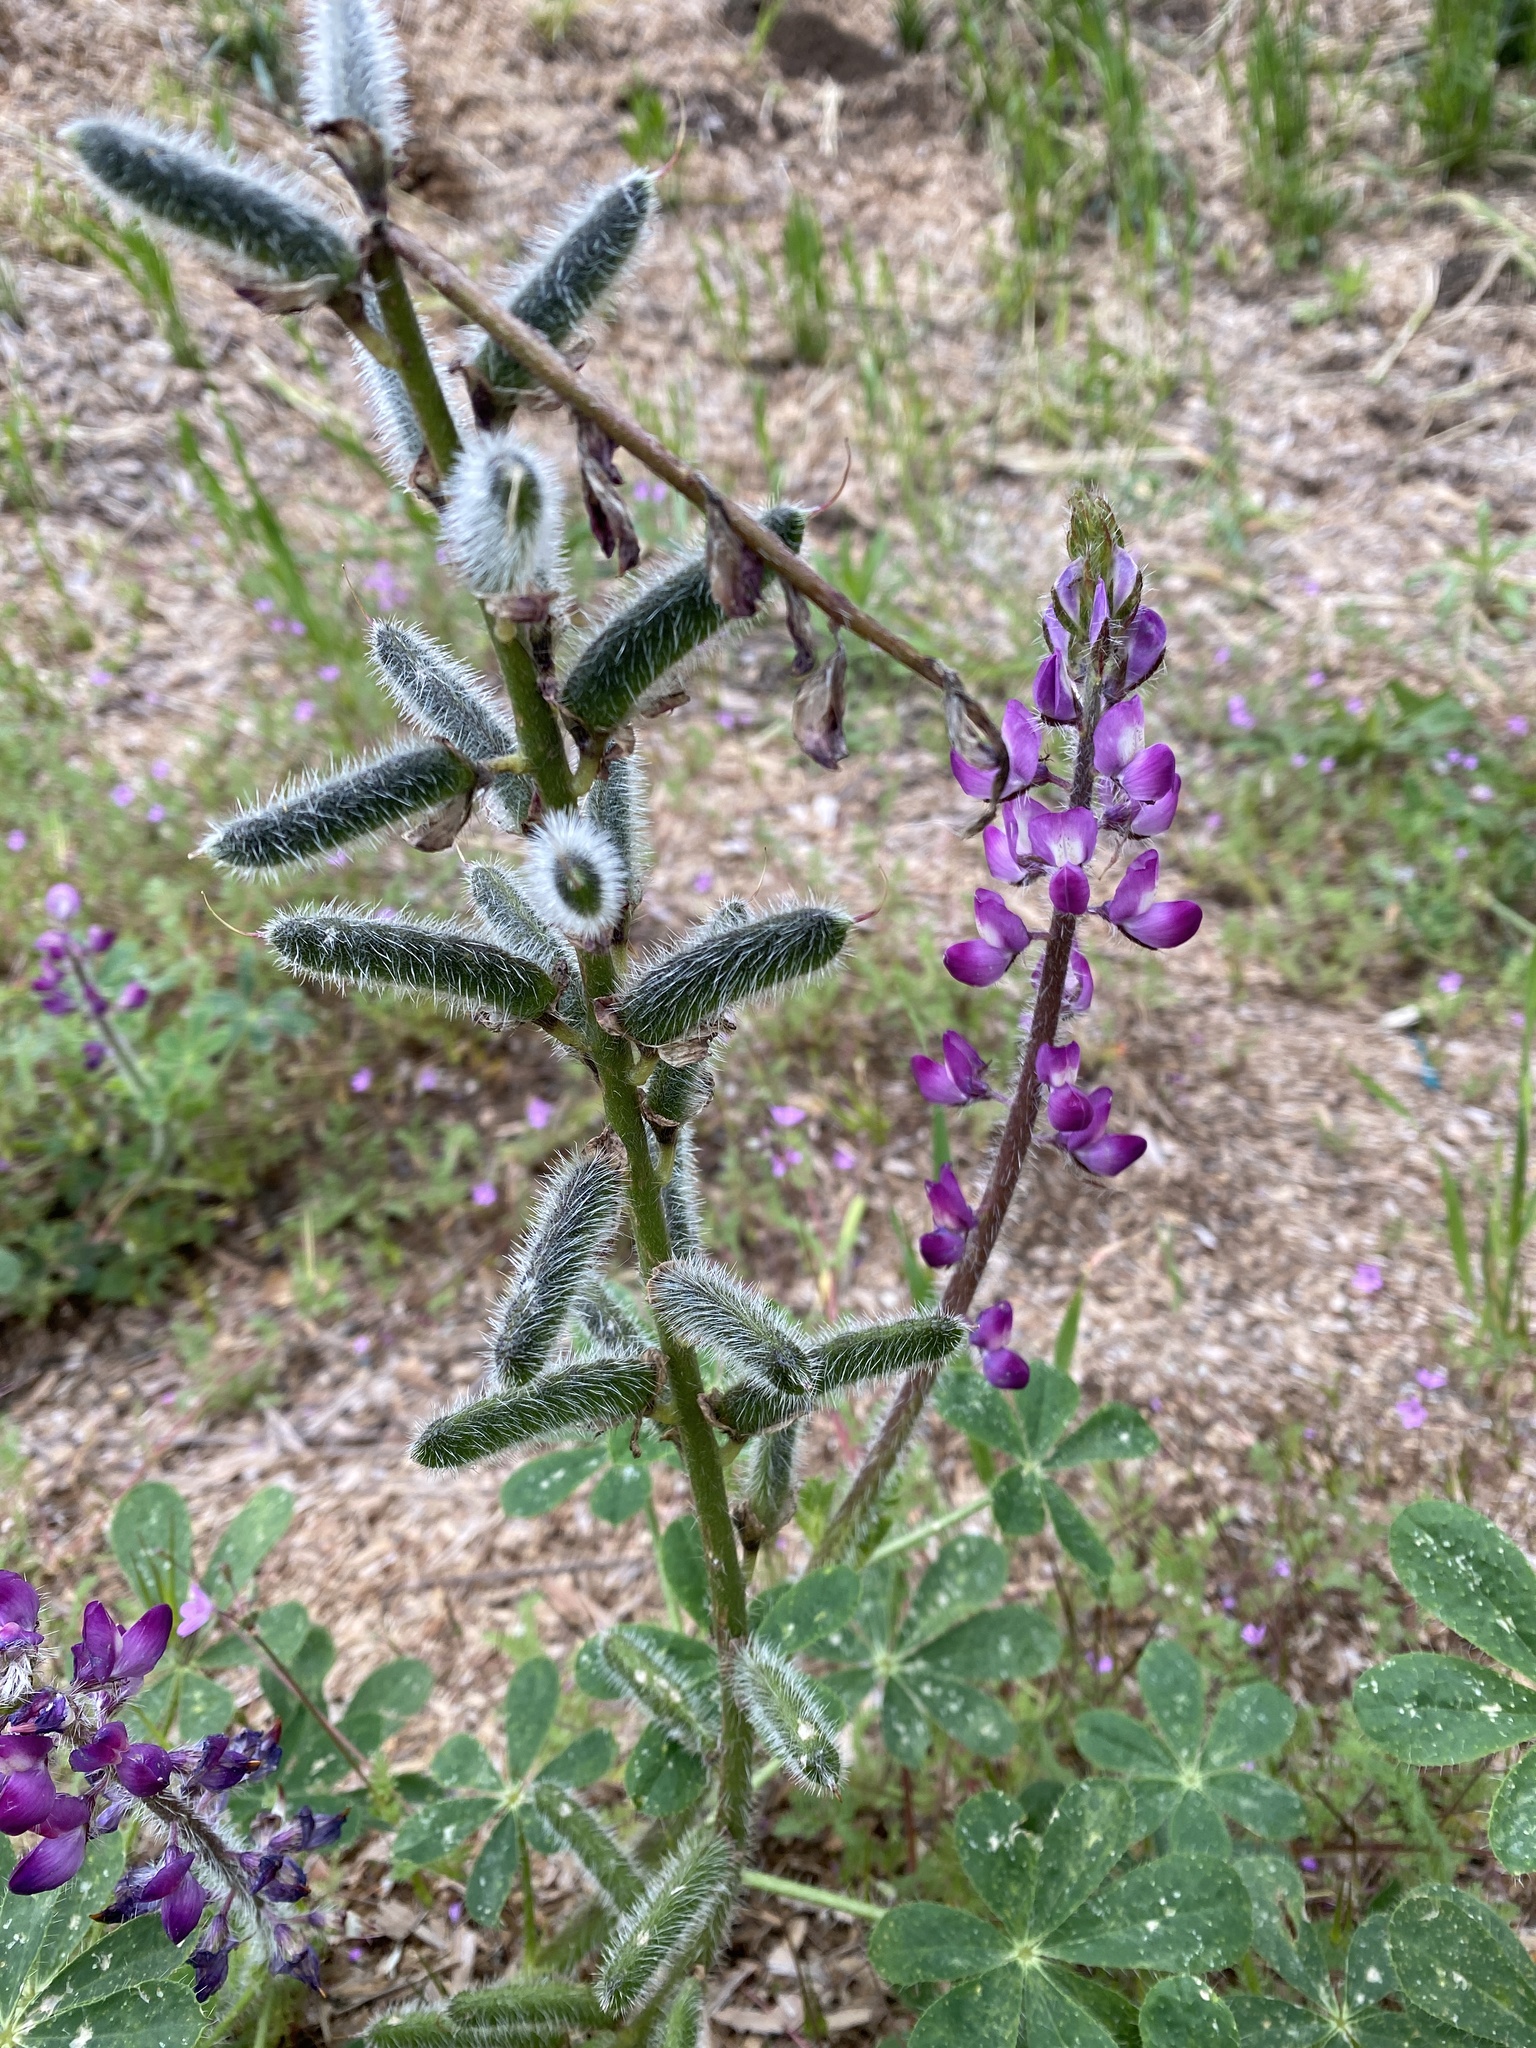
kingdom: Plantae
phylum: Tracheophyta
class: Magnoliopsida
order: Fabales
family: Fabaceae
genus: Lupinus
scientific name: Lupinus hirsutissimus
